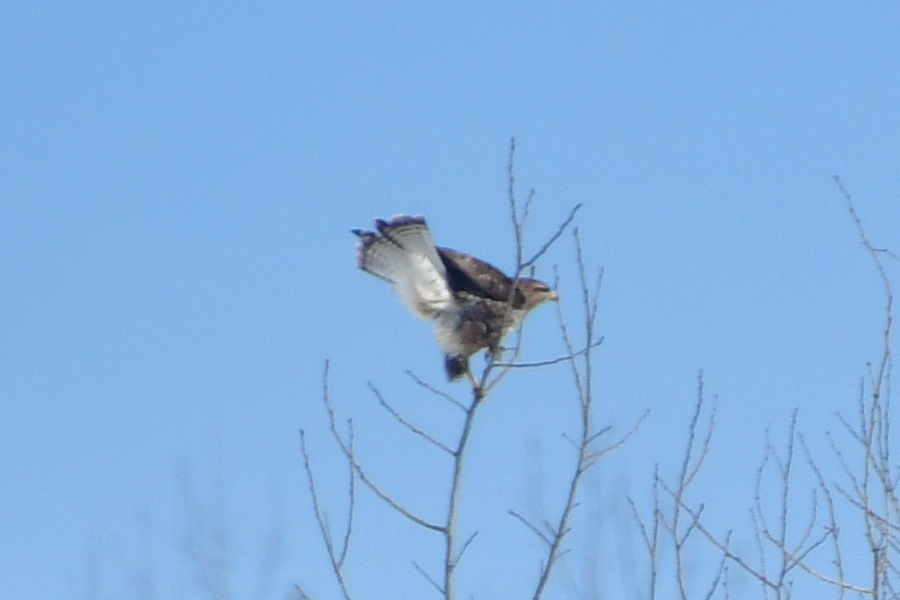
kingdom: Animalia
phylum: Chordata
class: Aves
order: Accipitriformes
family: Accipitridae
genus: Buteo
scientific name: Buteo buteo
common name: Common buzzard
